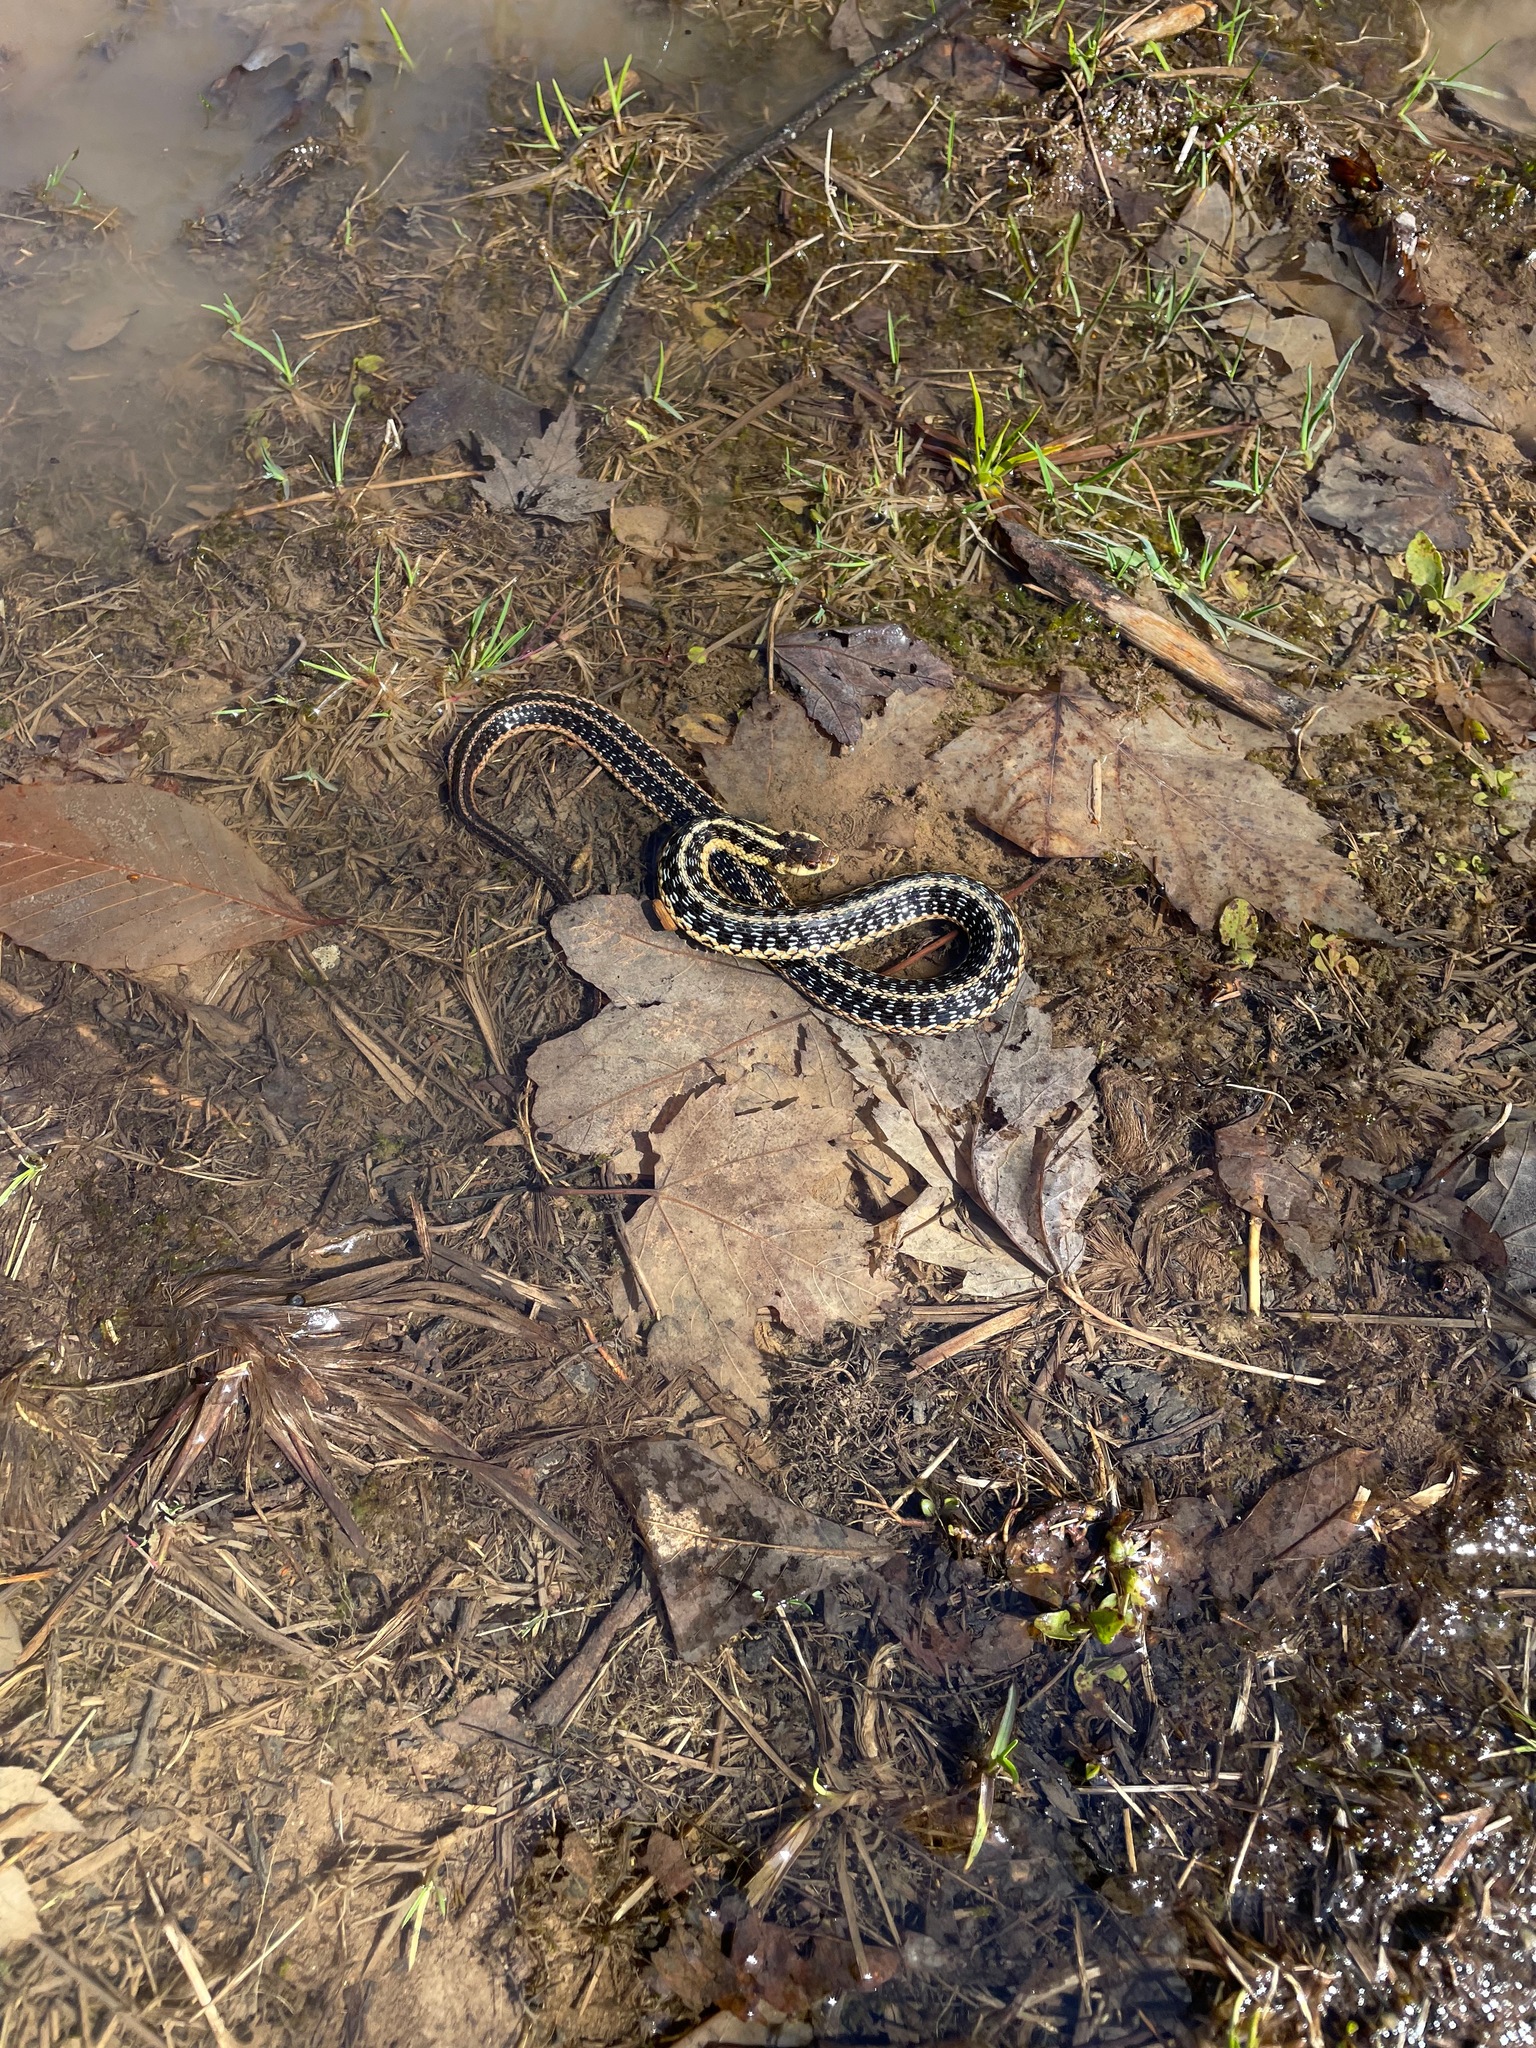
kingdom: Animalia
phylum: Chordata
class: Squamata
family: Colubridae
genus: Thamnophis
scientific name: Thamnophis sirtalis
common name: Common garter snake
